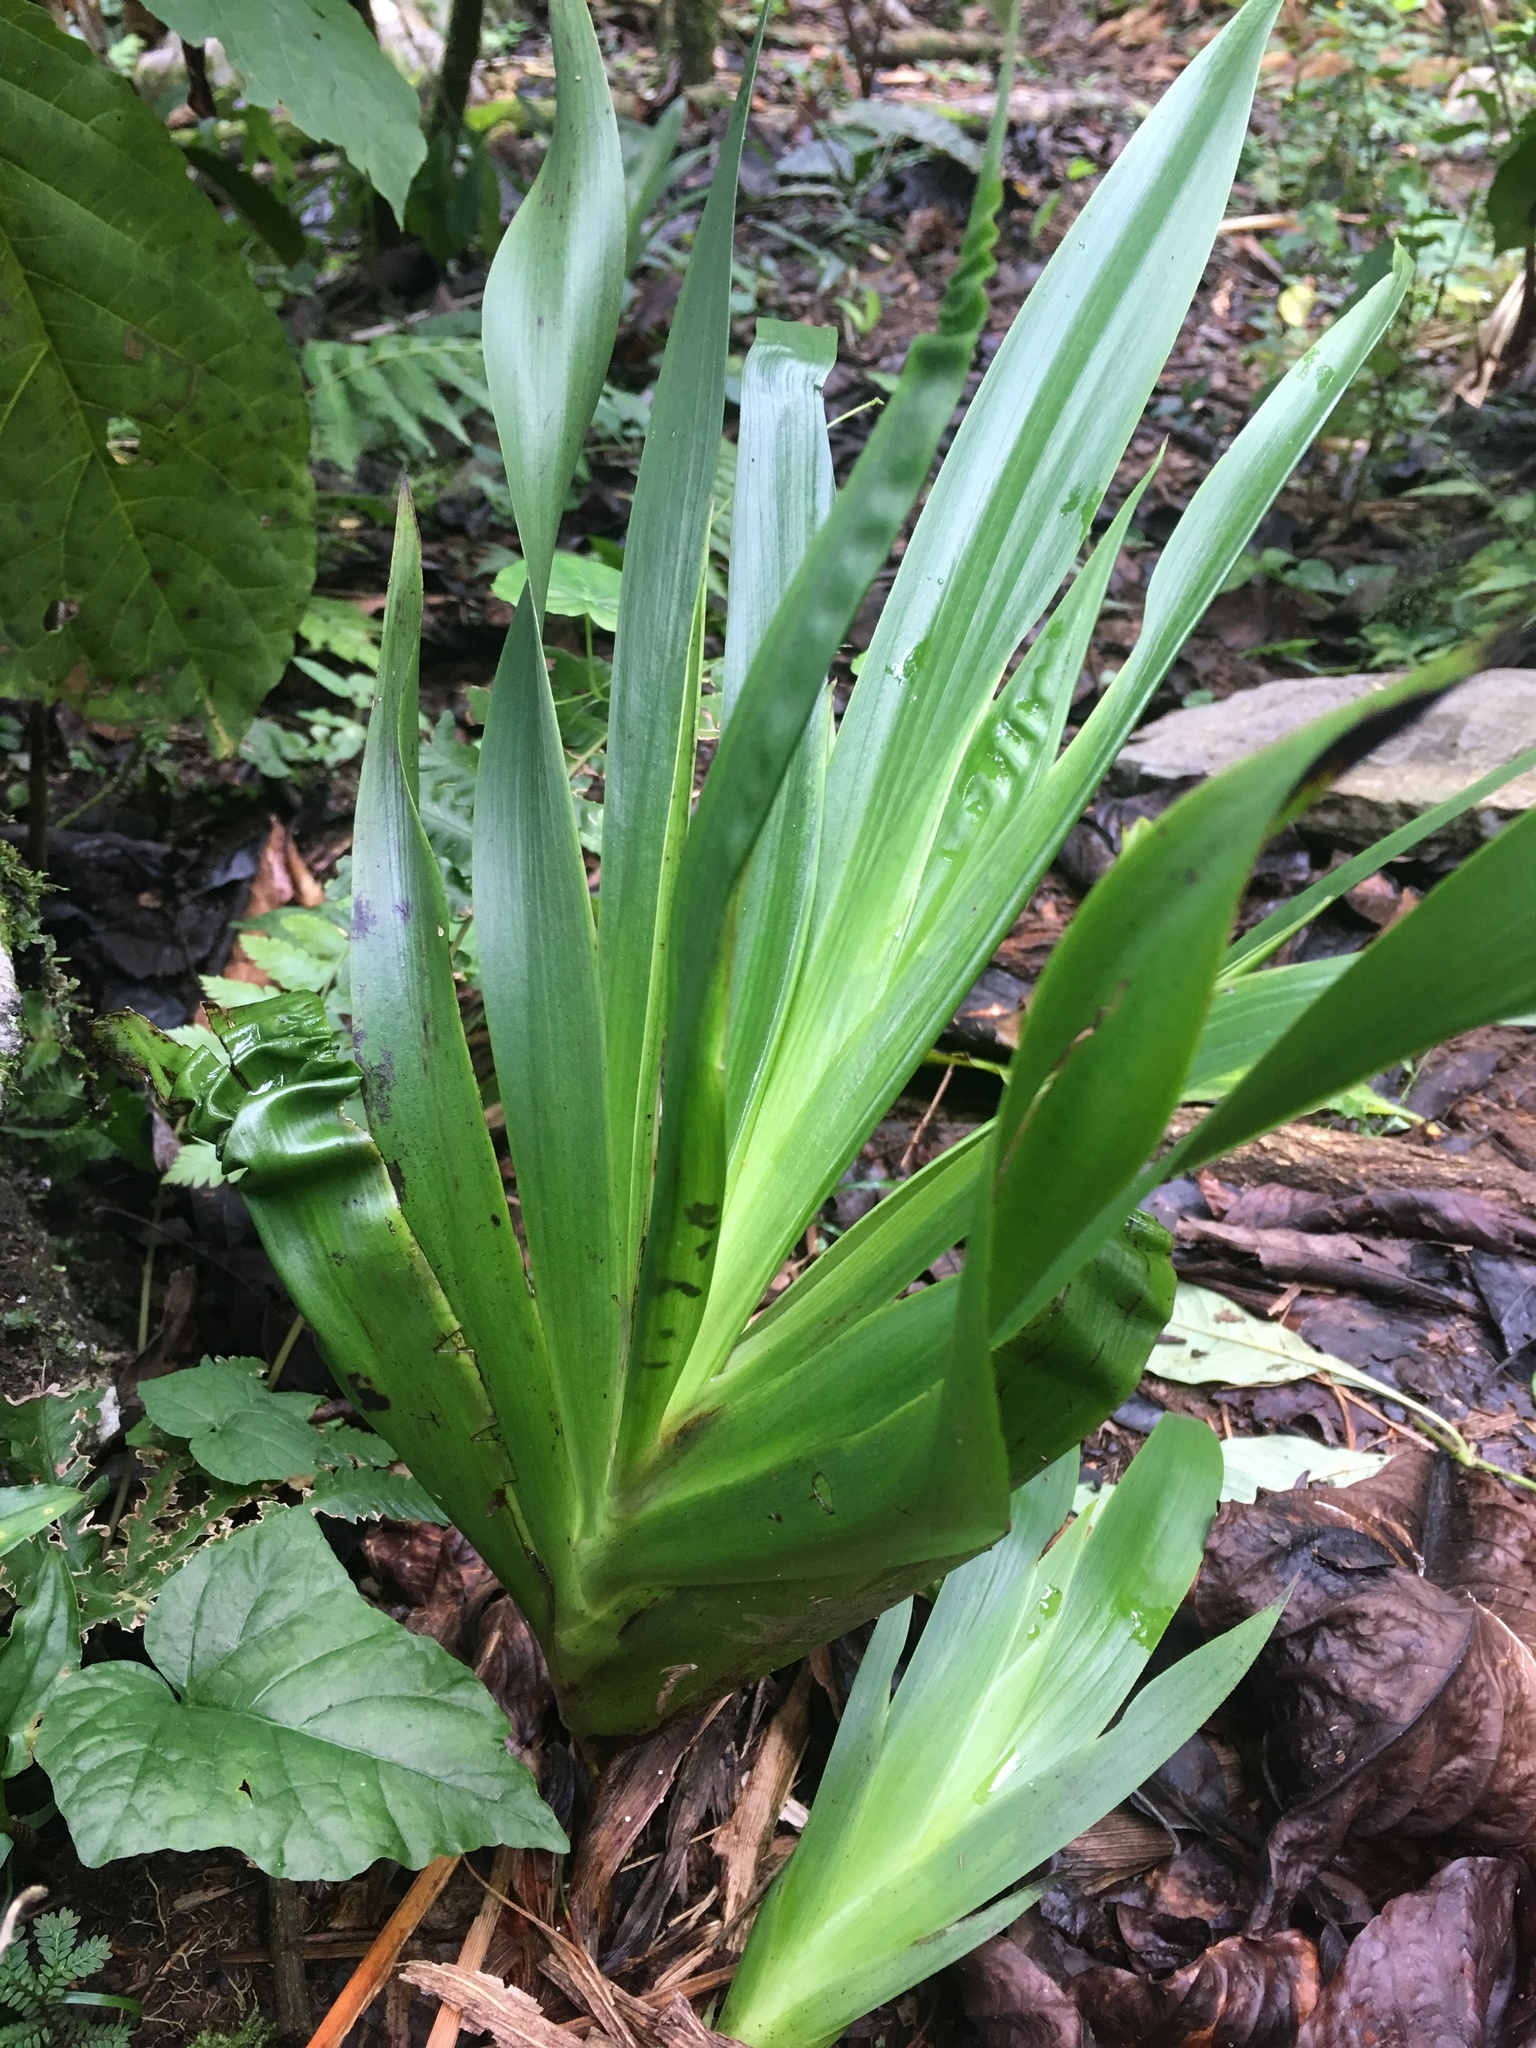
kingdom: Plantae
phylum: Tracheophyta
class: Liliopsida
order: Commelinales
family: Haemodoraceae
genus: Xiphidium
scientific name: Xiphidium caeruleum
